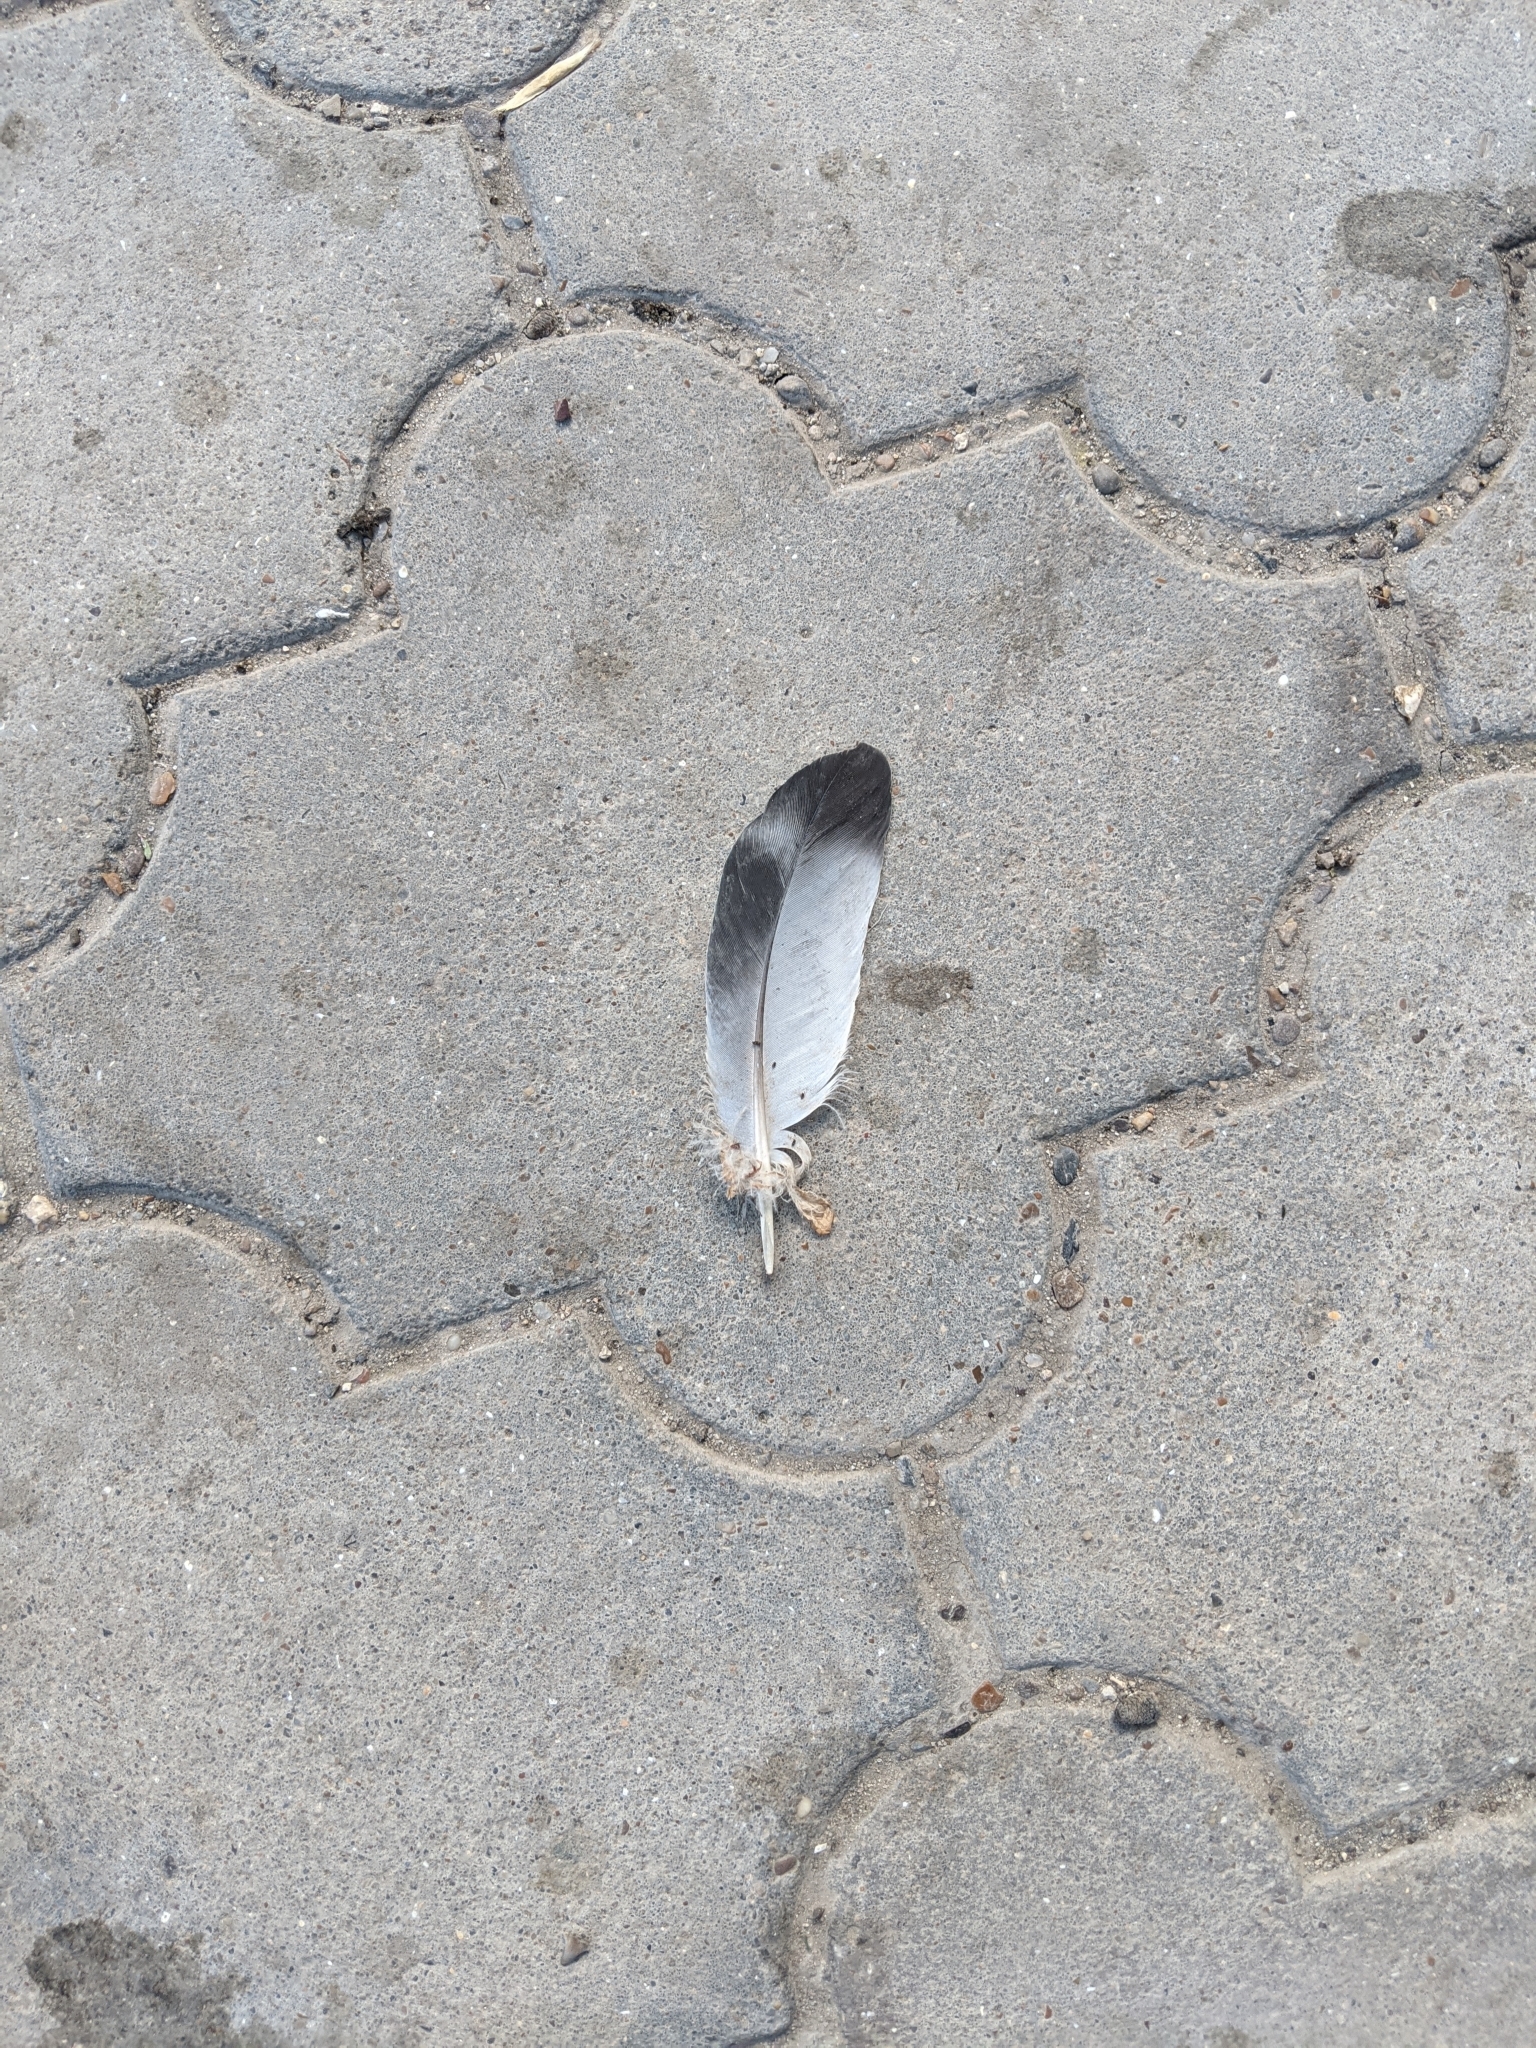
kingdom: Animalia
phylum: Chordata
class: Aves
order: Columbiformes
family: Columbidae
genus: Columba
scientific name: Columba livia
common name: Rock pigeon
